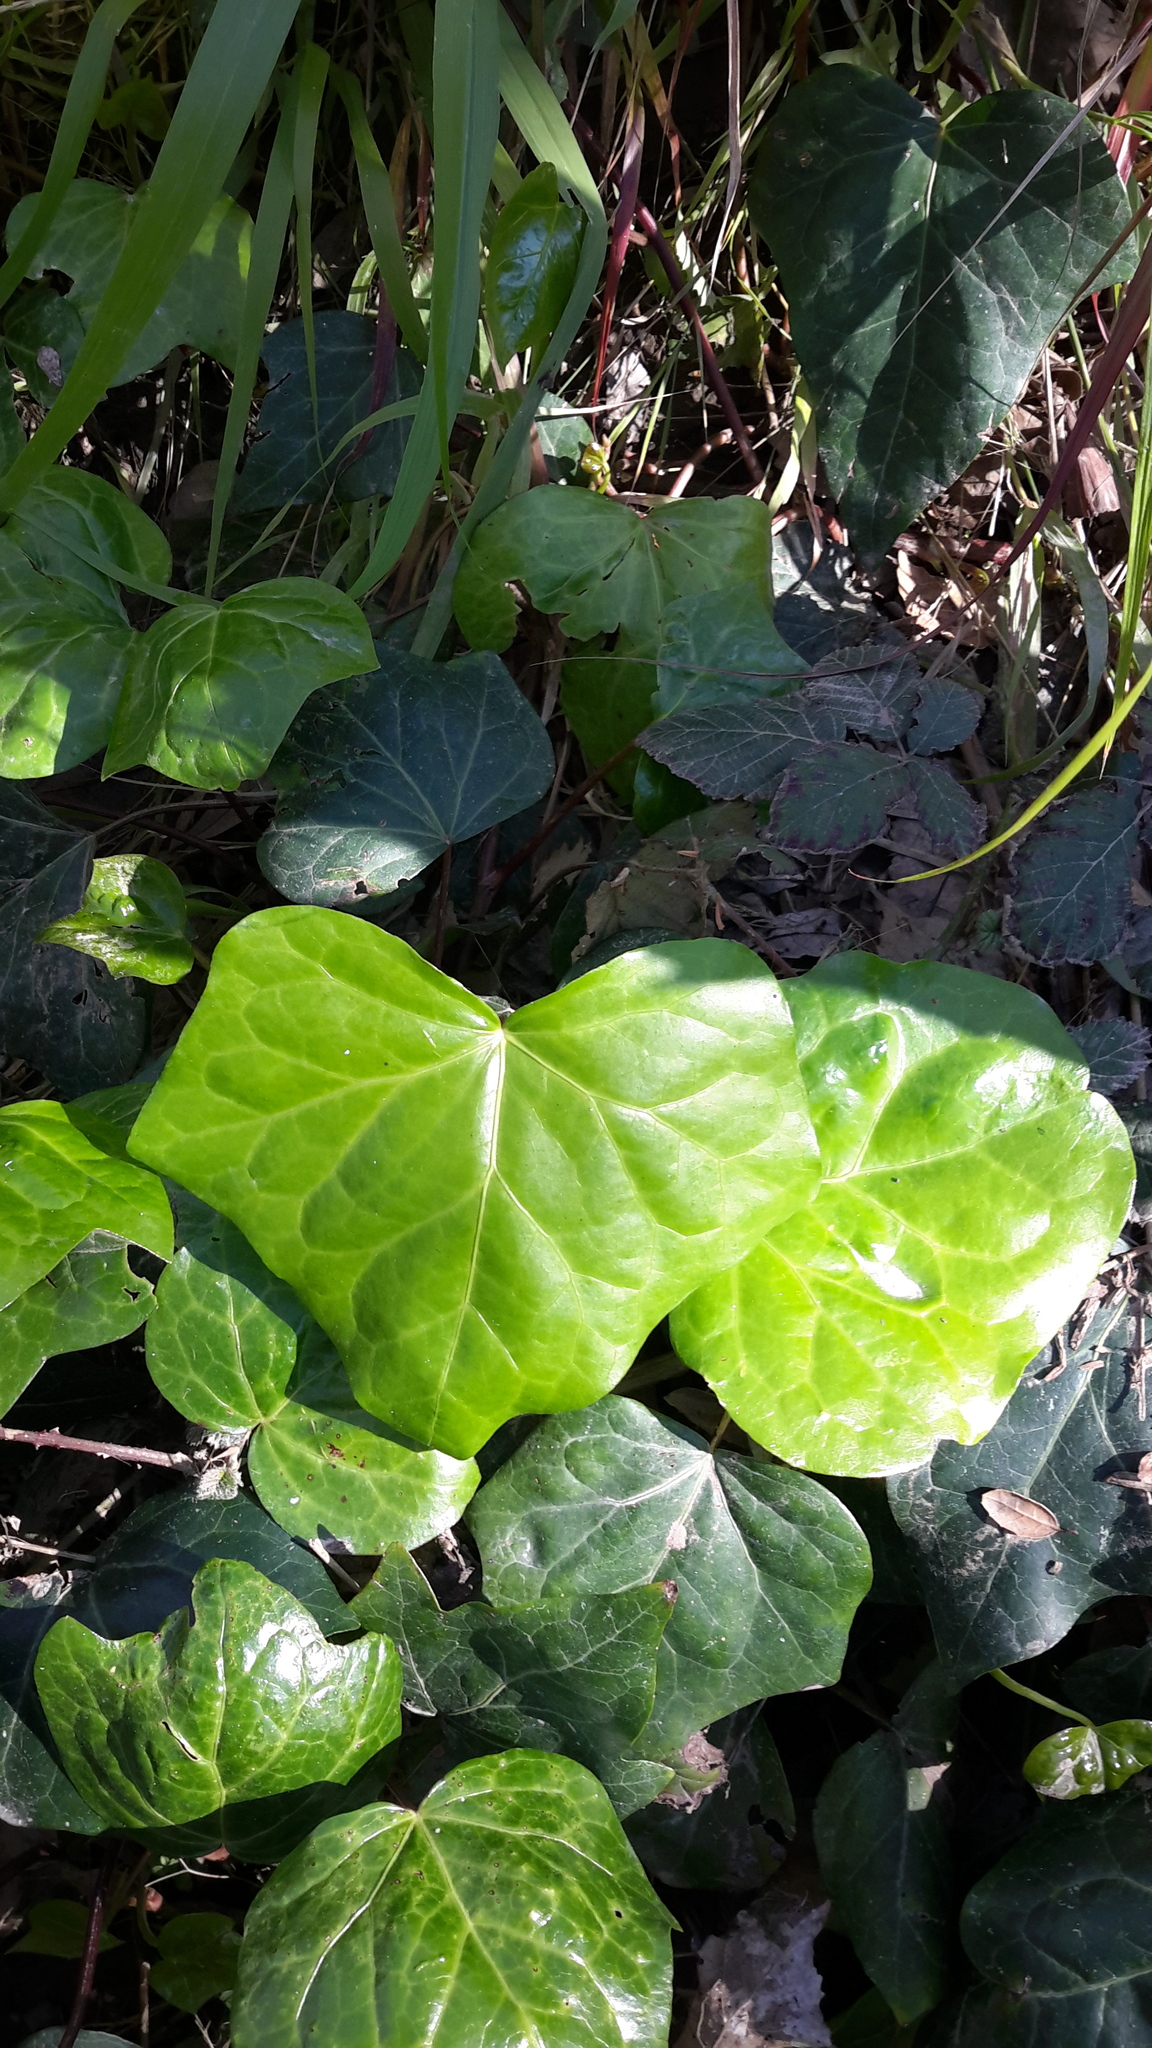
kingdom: Plantae
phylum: Tracheophyta
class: Magnoliopsida
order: Apiales
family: Araliaceae
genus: Hedera
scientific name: Hedera helix
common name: Ivy
